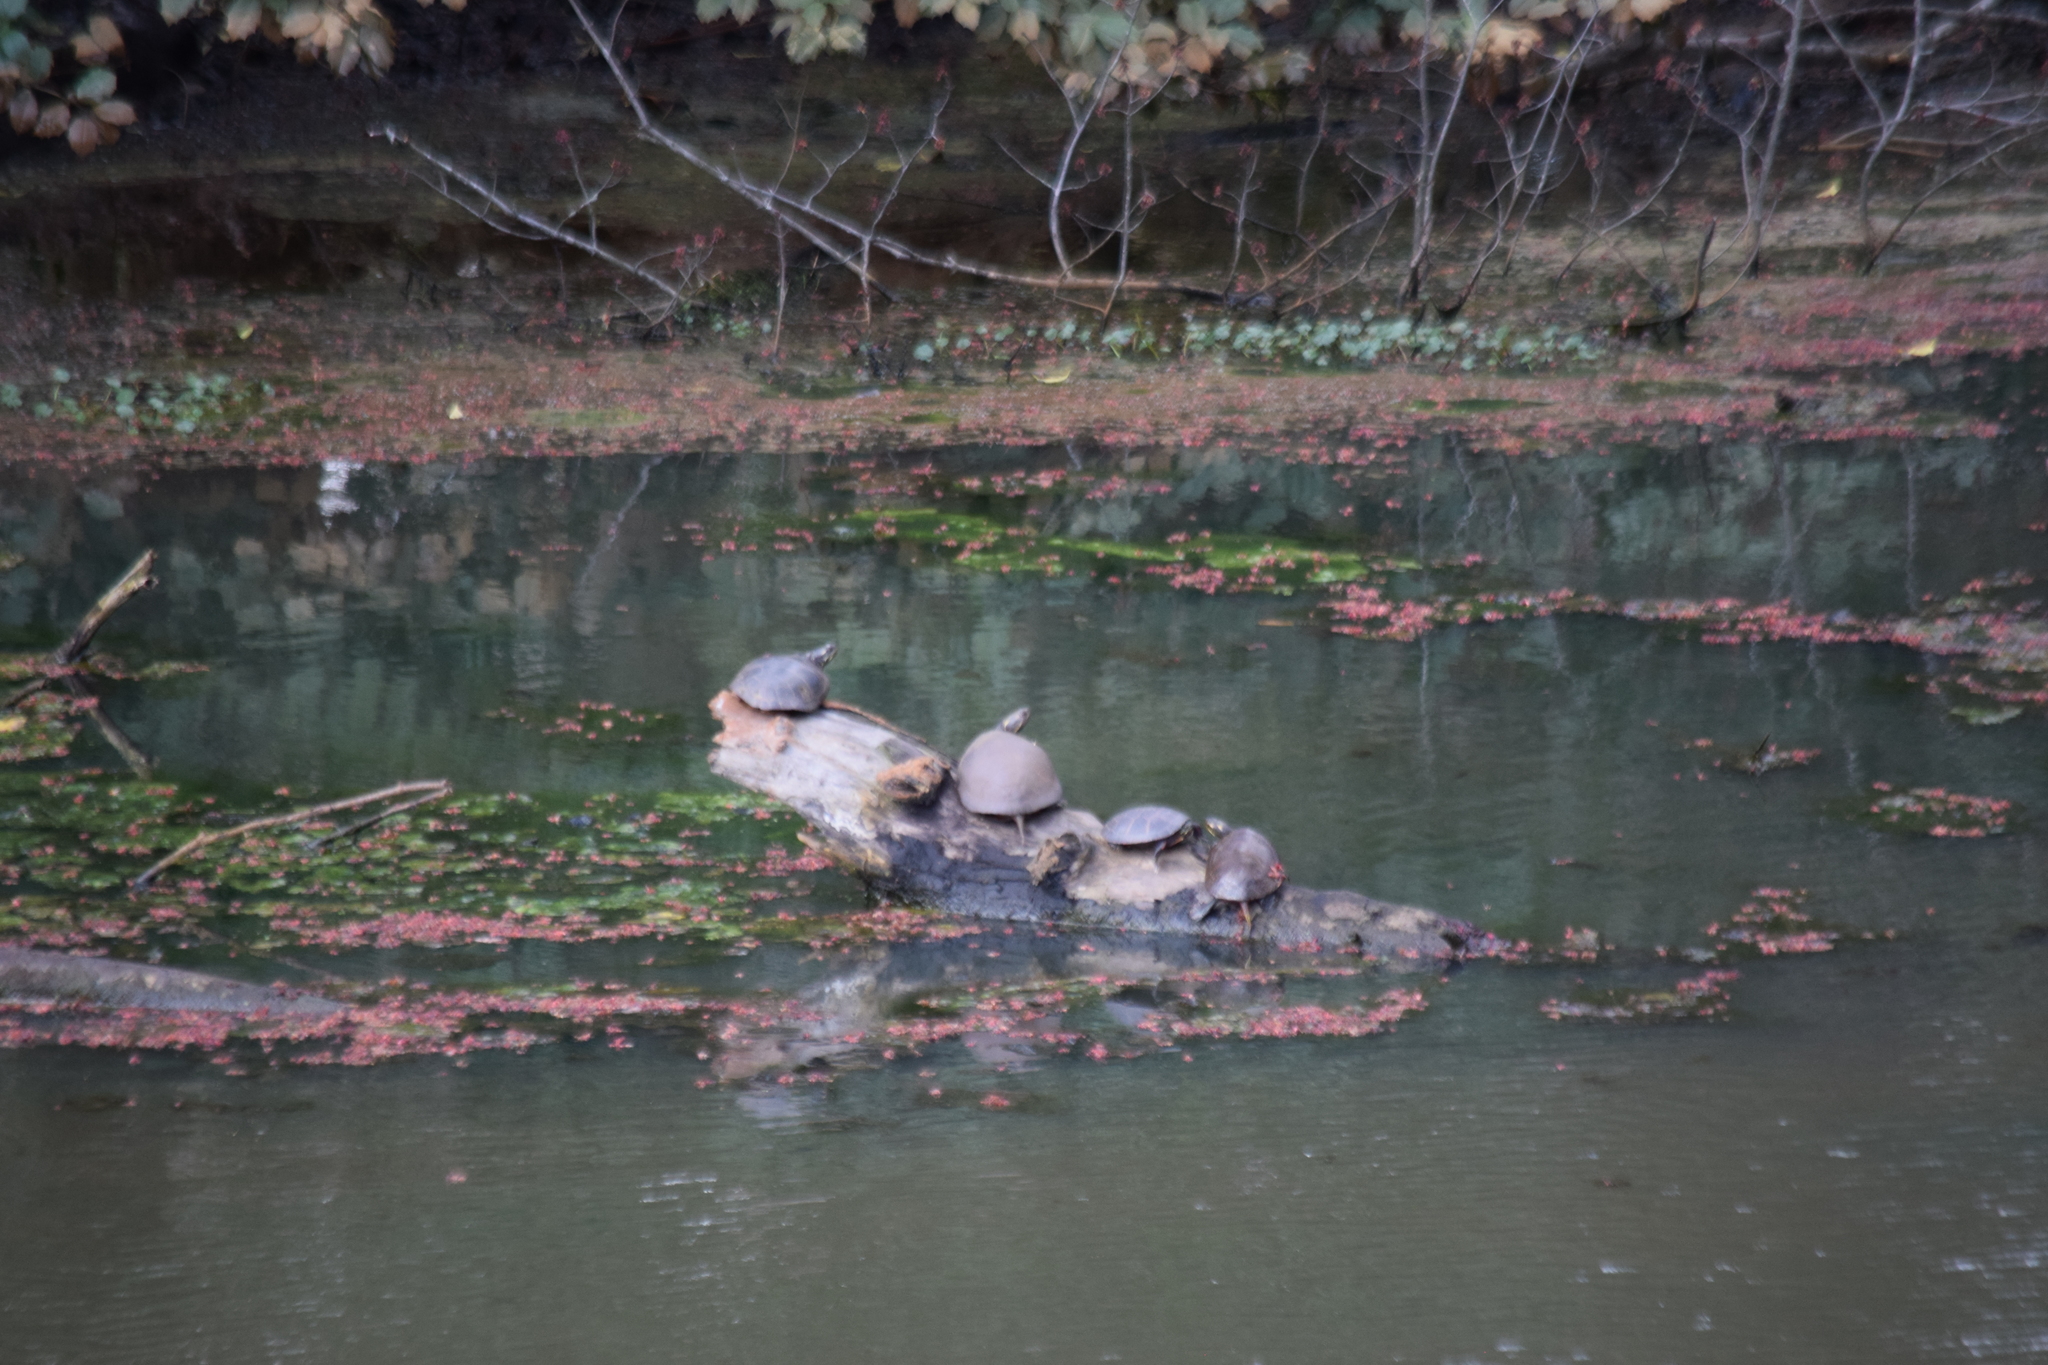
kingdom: Animalia
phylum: Chordata
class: Testudines
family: Emydidae
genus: Chrysemys
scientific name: Chrysemys picta
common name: Painted turtle
